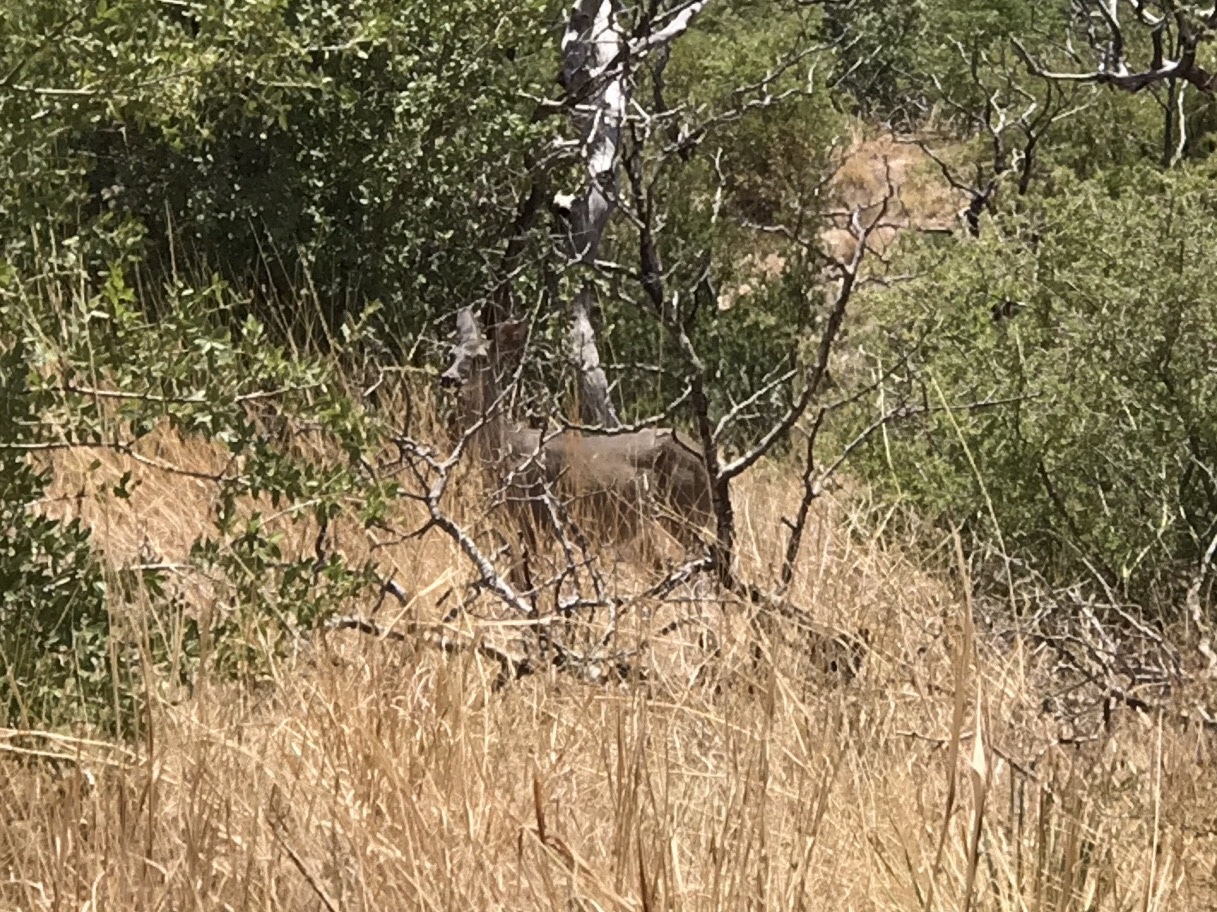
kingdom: Animalia
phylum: Chordata
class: Mammalia
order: Artiodactyla
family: Cervidae
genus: Odocoileus
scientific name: Odocoileus virginianus
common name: White-tailed deer
